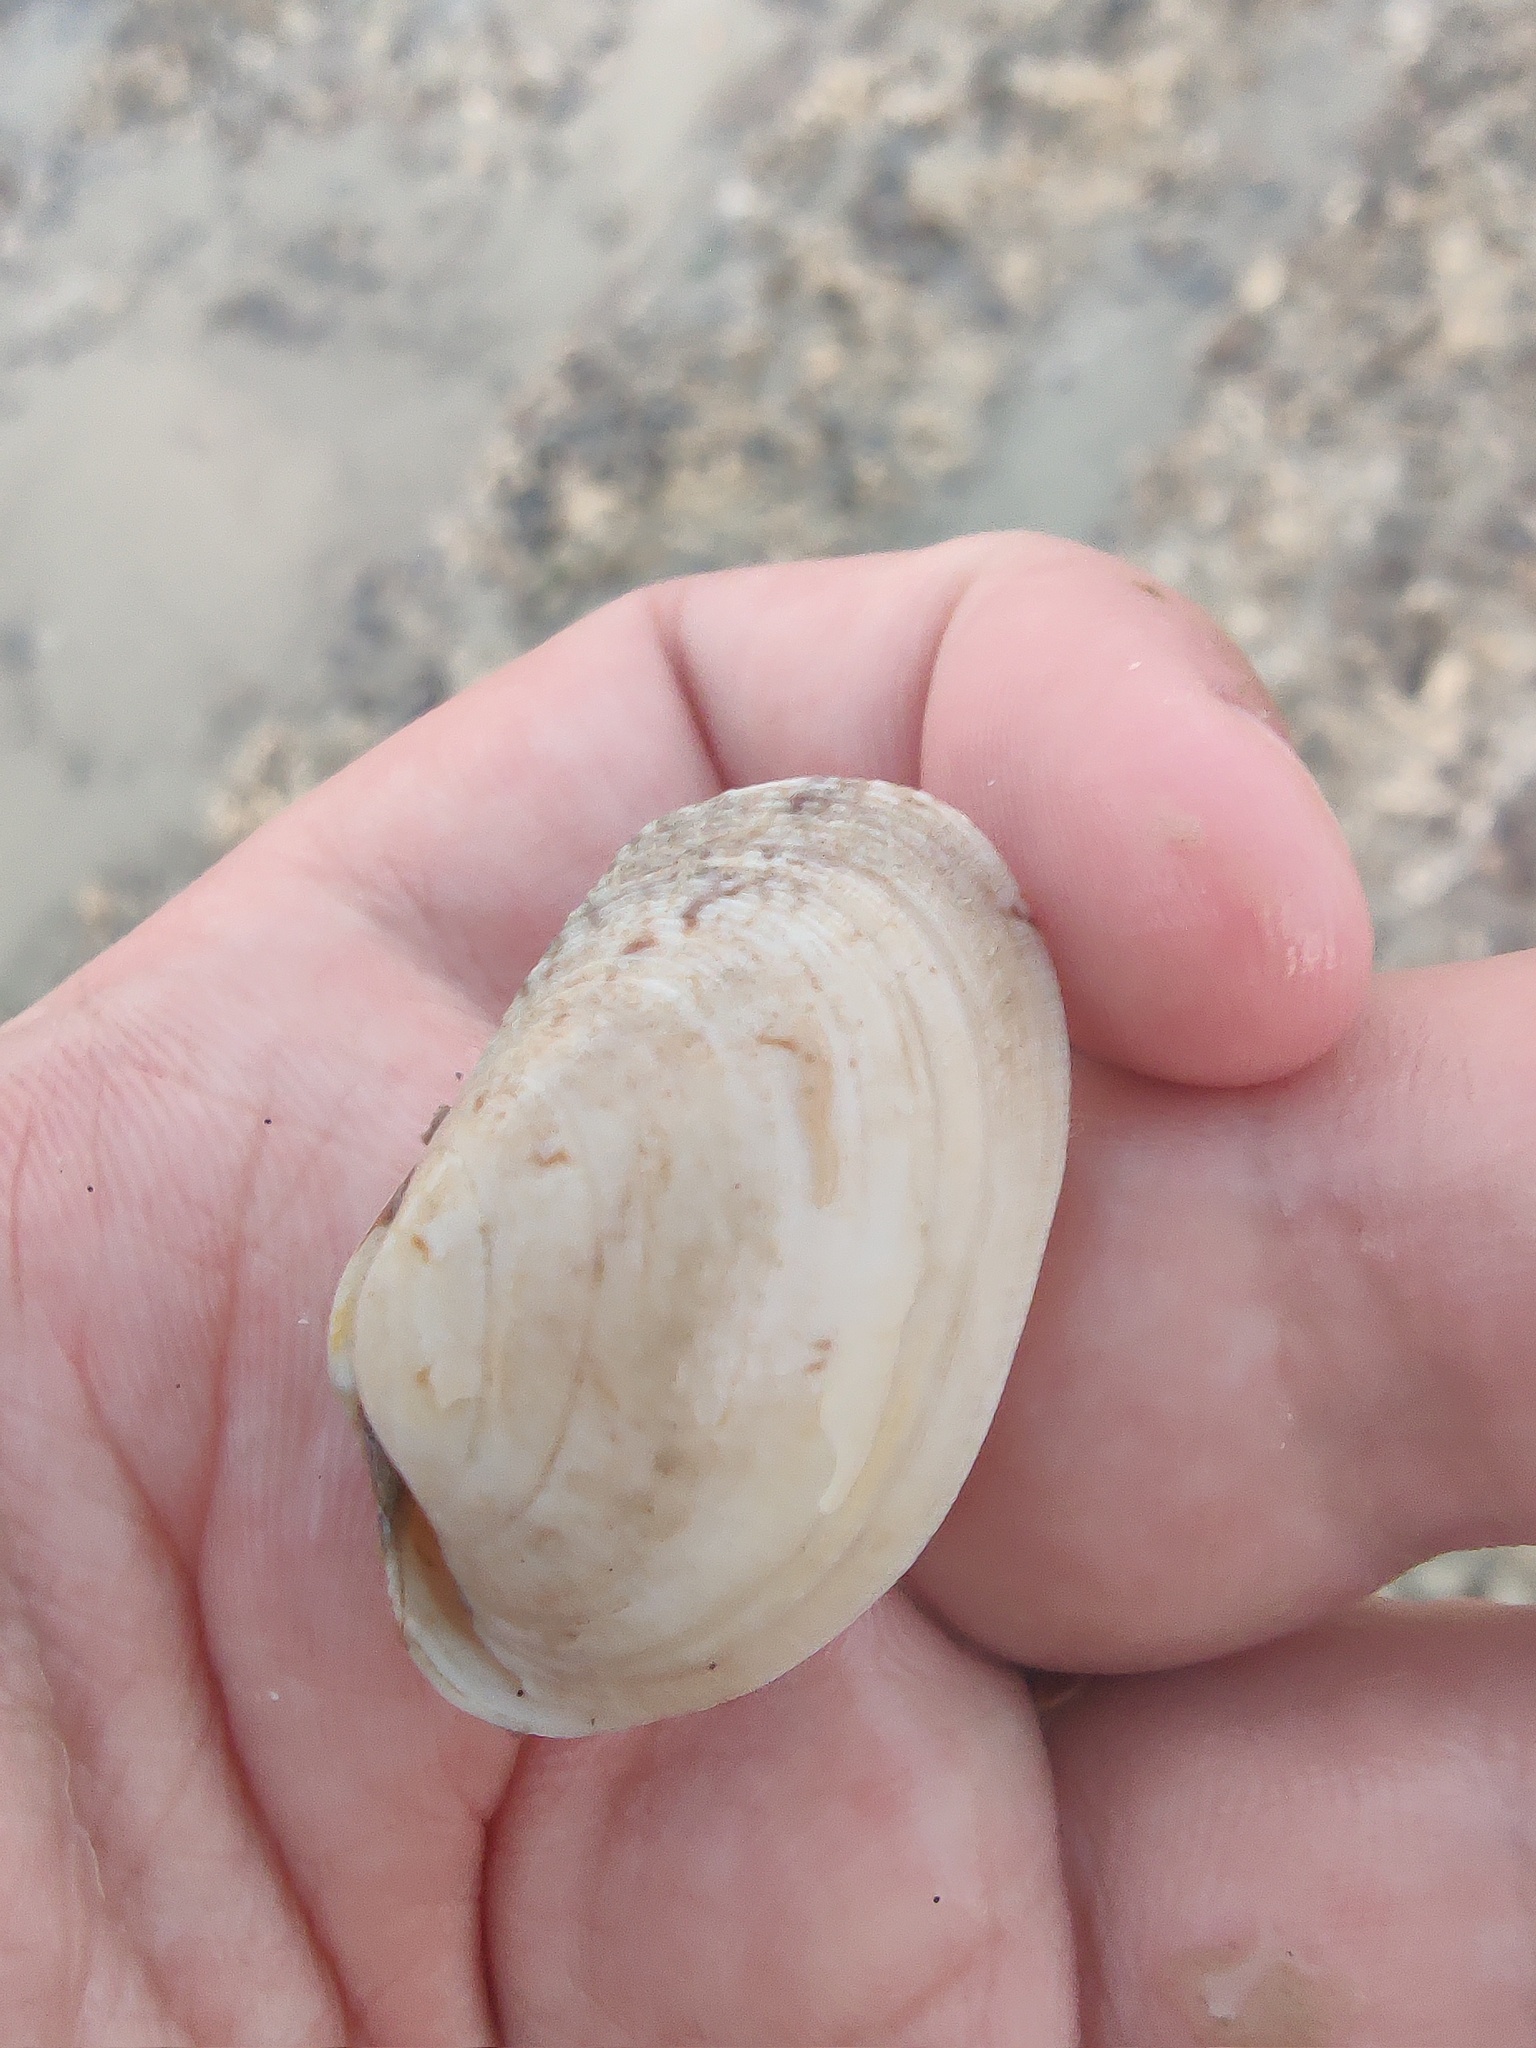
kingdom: Animalia
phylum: Mollusca
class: Bivalvia
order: Venerida
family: Veneridae
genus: Venerupis
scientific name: Venerupis corrugata
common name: Pullet carpet shell
